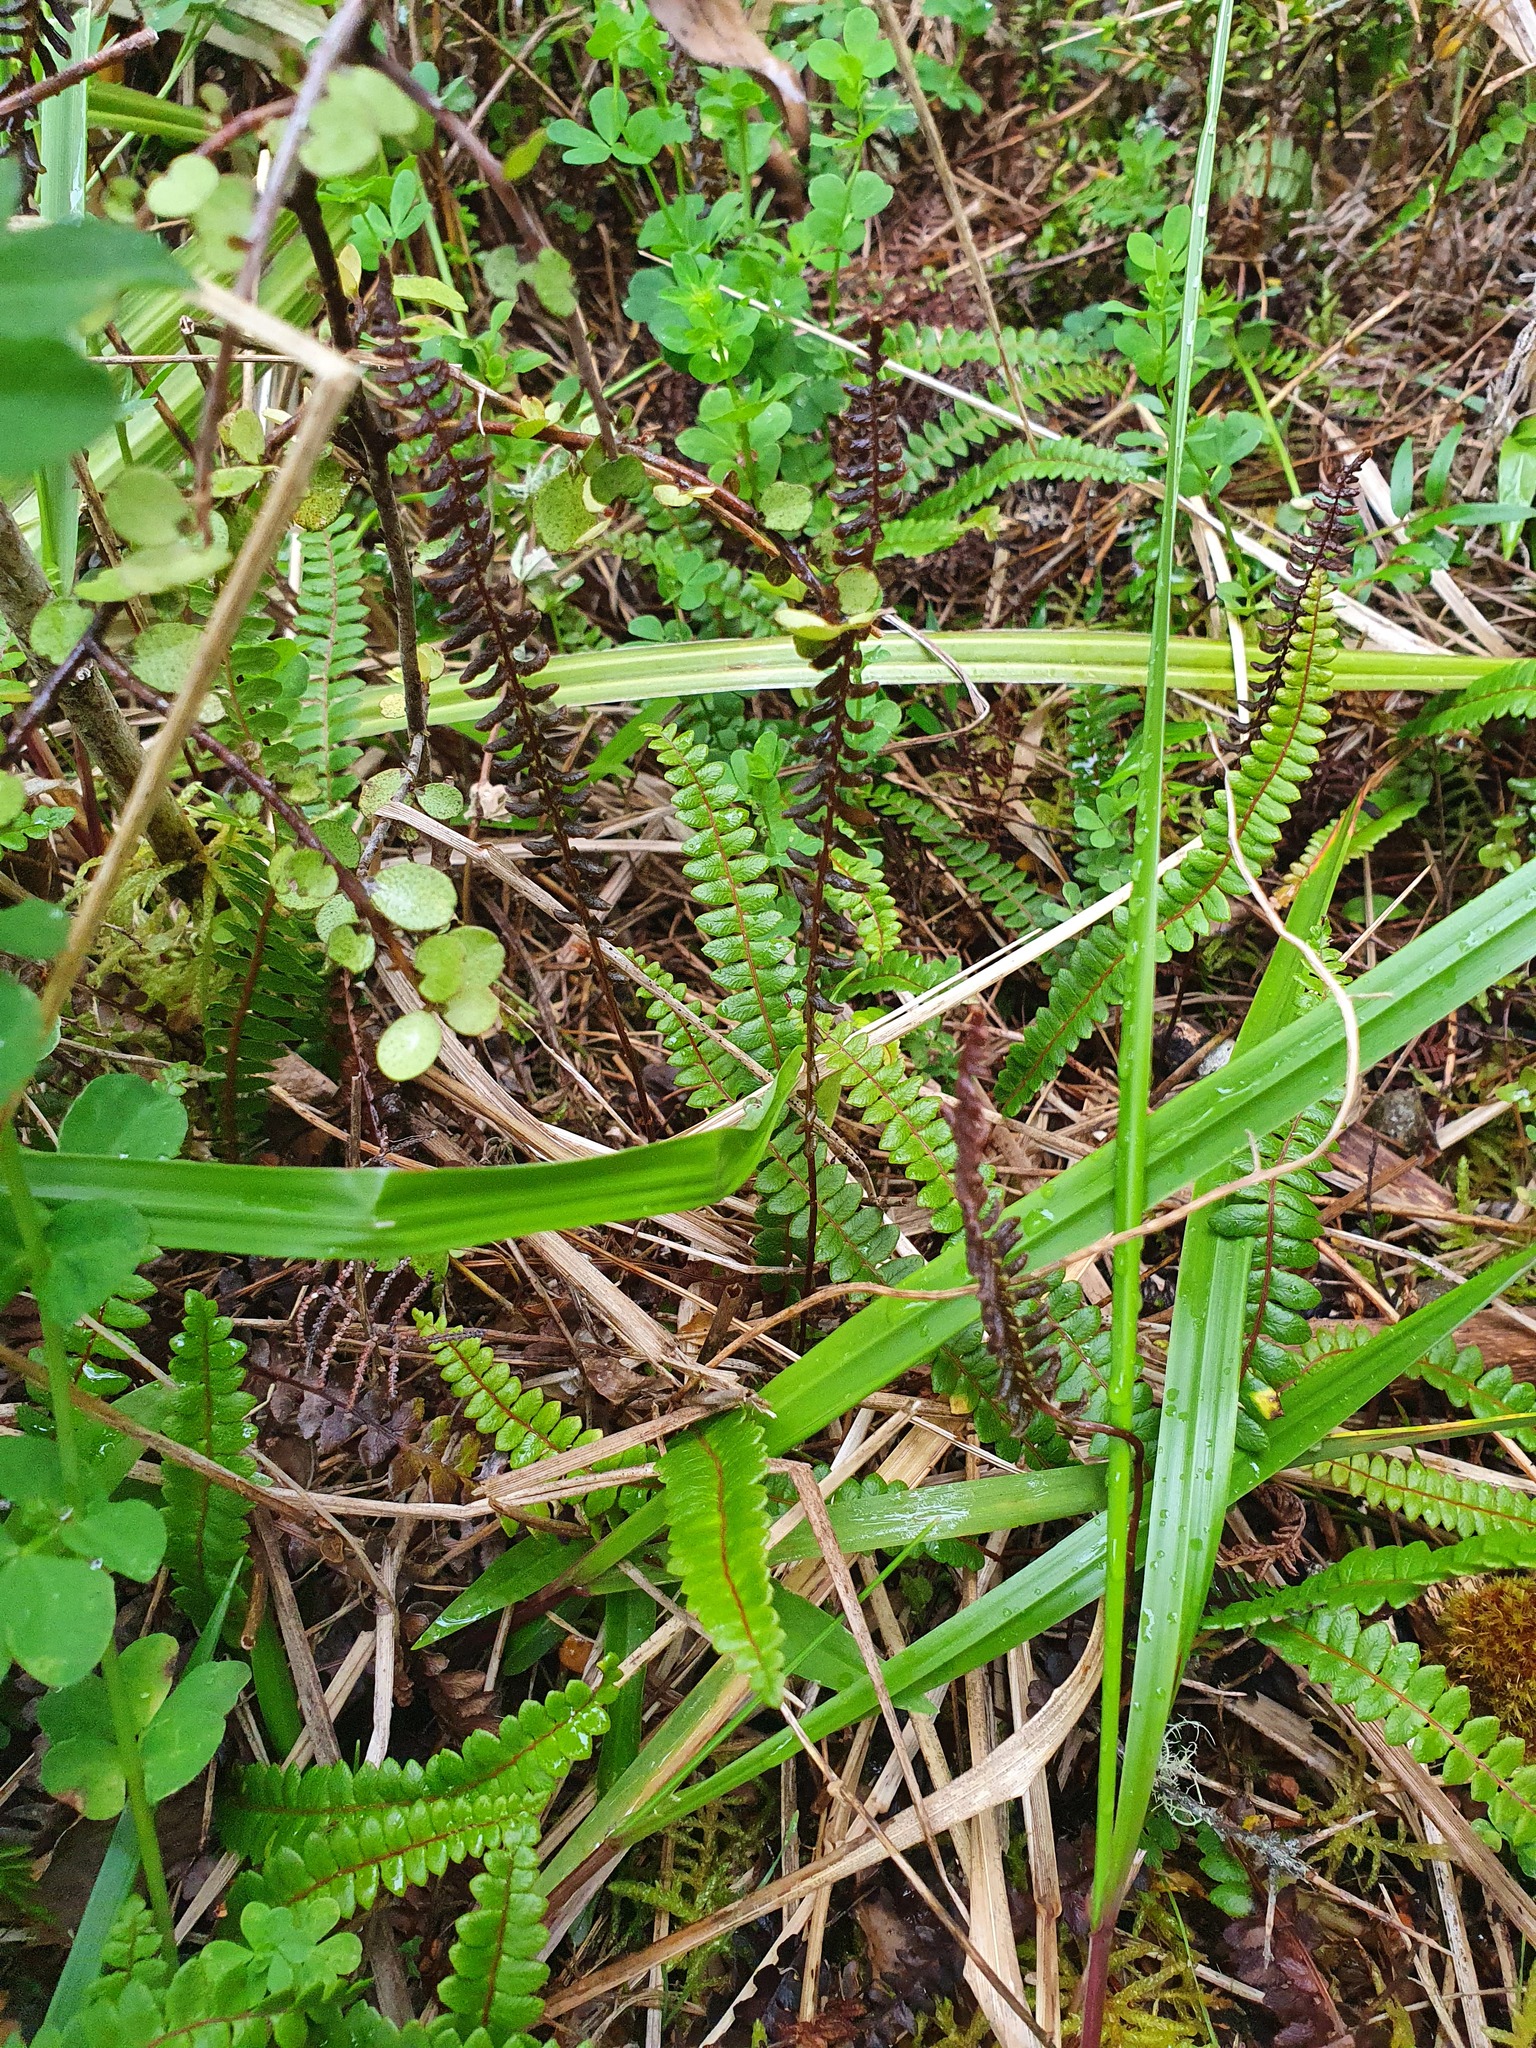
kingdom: Plantae
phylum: Tracheophyta
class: Polypodiopsida
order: Polypodiales
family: Blechnaceae
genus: Austroblechnum
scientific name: Austroblechnum penna-marina
